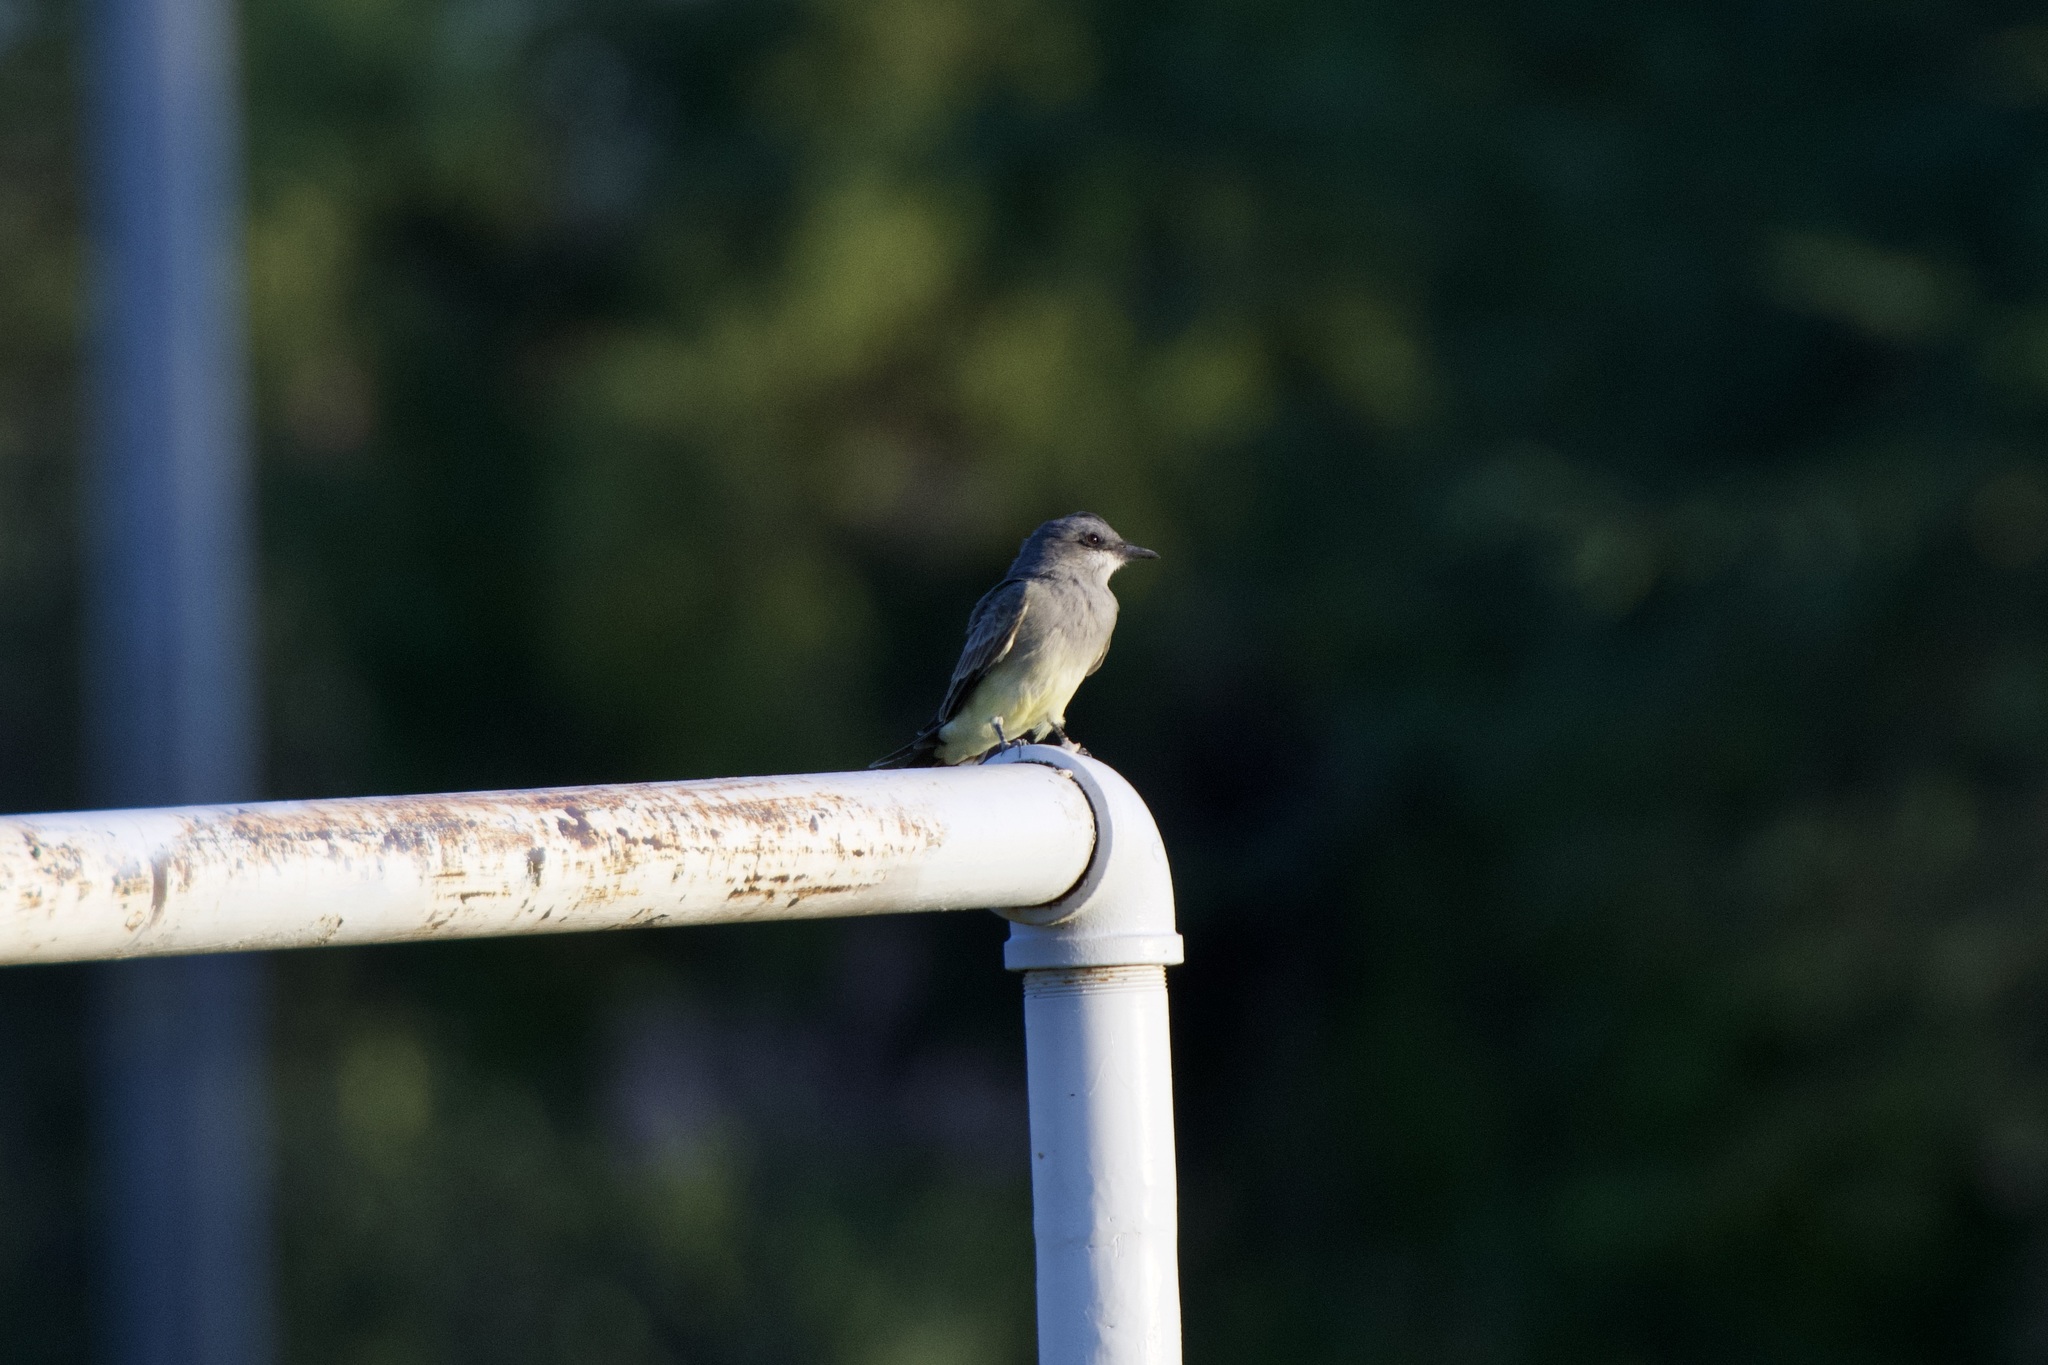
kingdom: Animalia
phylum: Chordata
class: Aves
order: Passeriformes
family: Tyrannidae
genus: Tyrannus
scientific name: Tyrannus vociferans
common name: Cassin's kingbird
